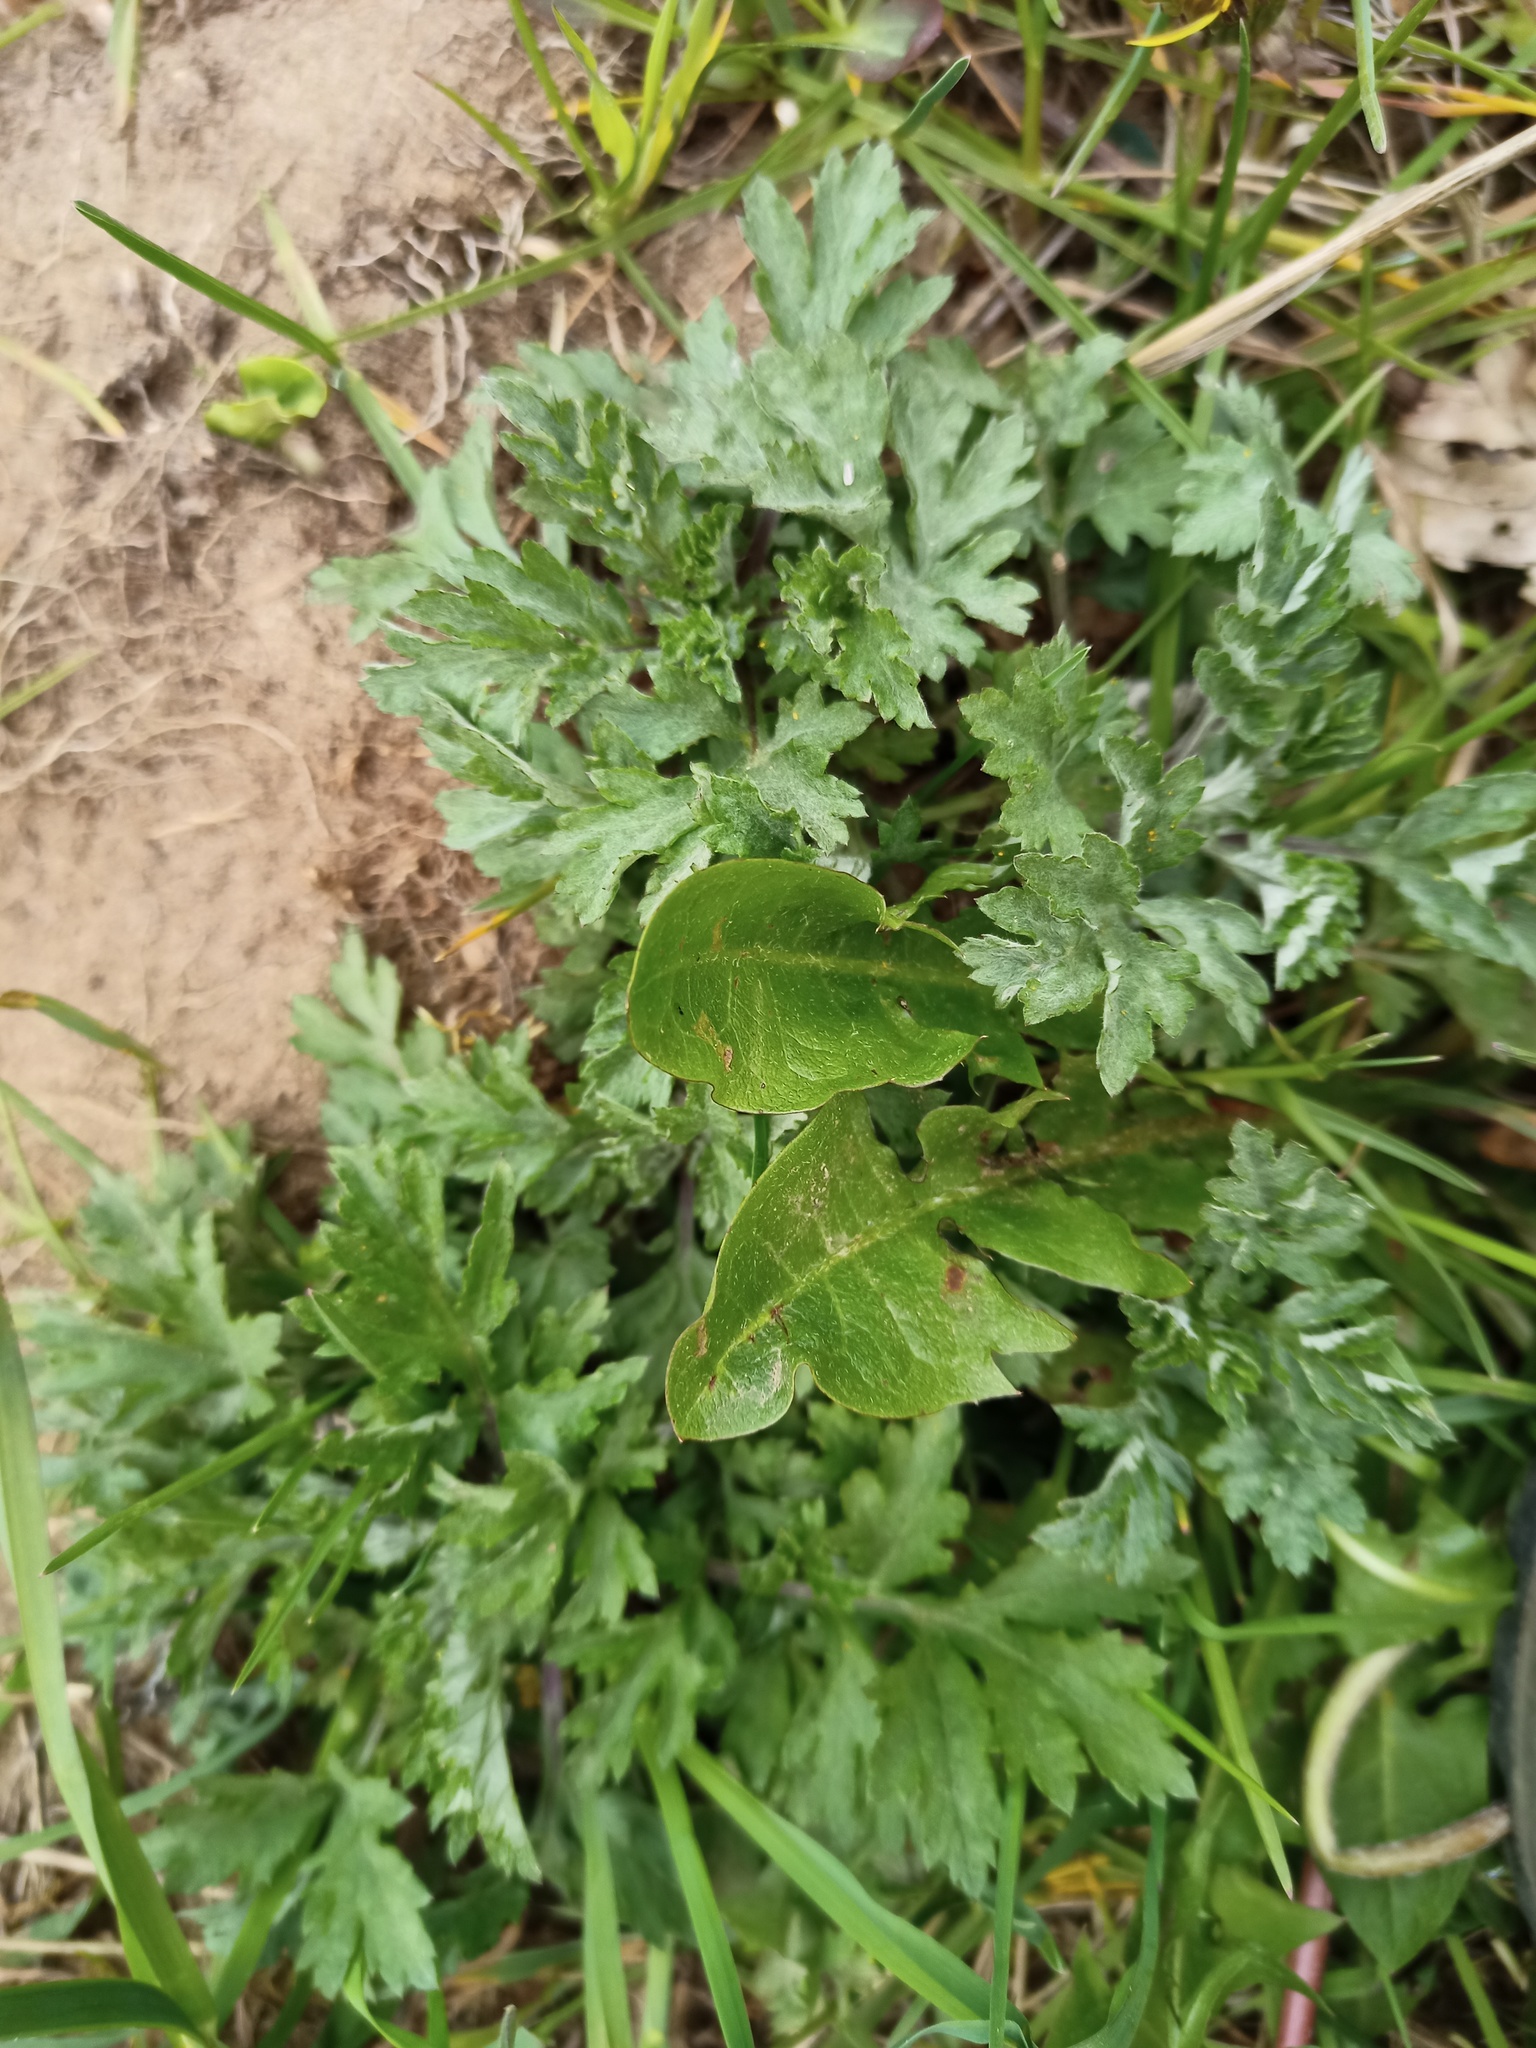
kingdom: Plantae
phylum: Tracheophyta
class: Magnoliopsida
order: Asterales
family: Asteraceae
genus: Artemisia
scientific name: Artemisia vulgaris
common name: Mugwort
